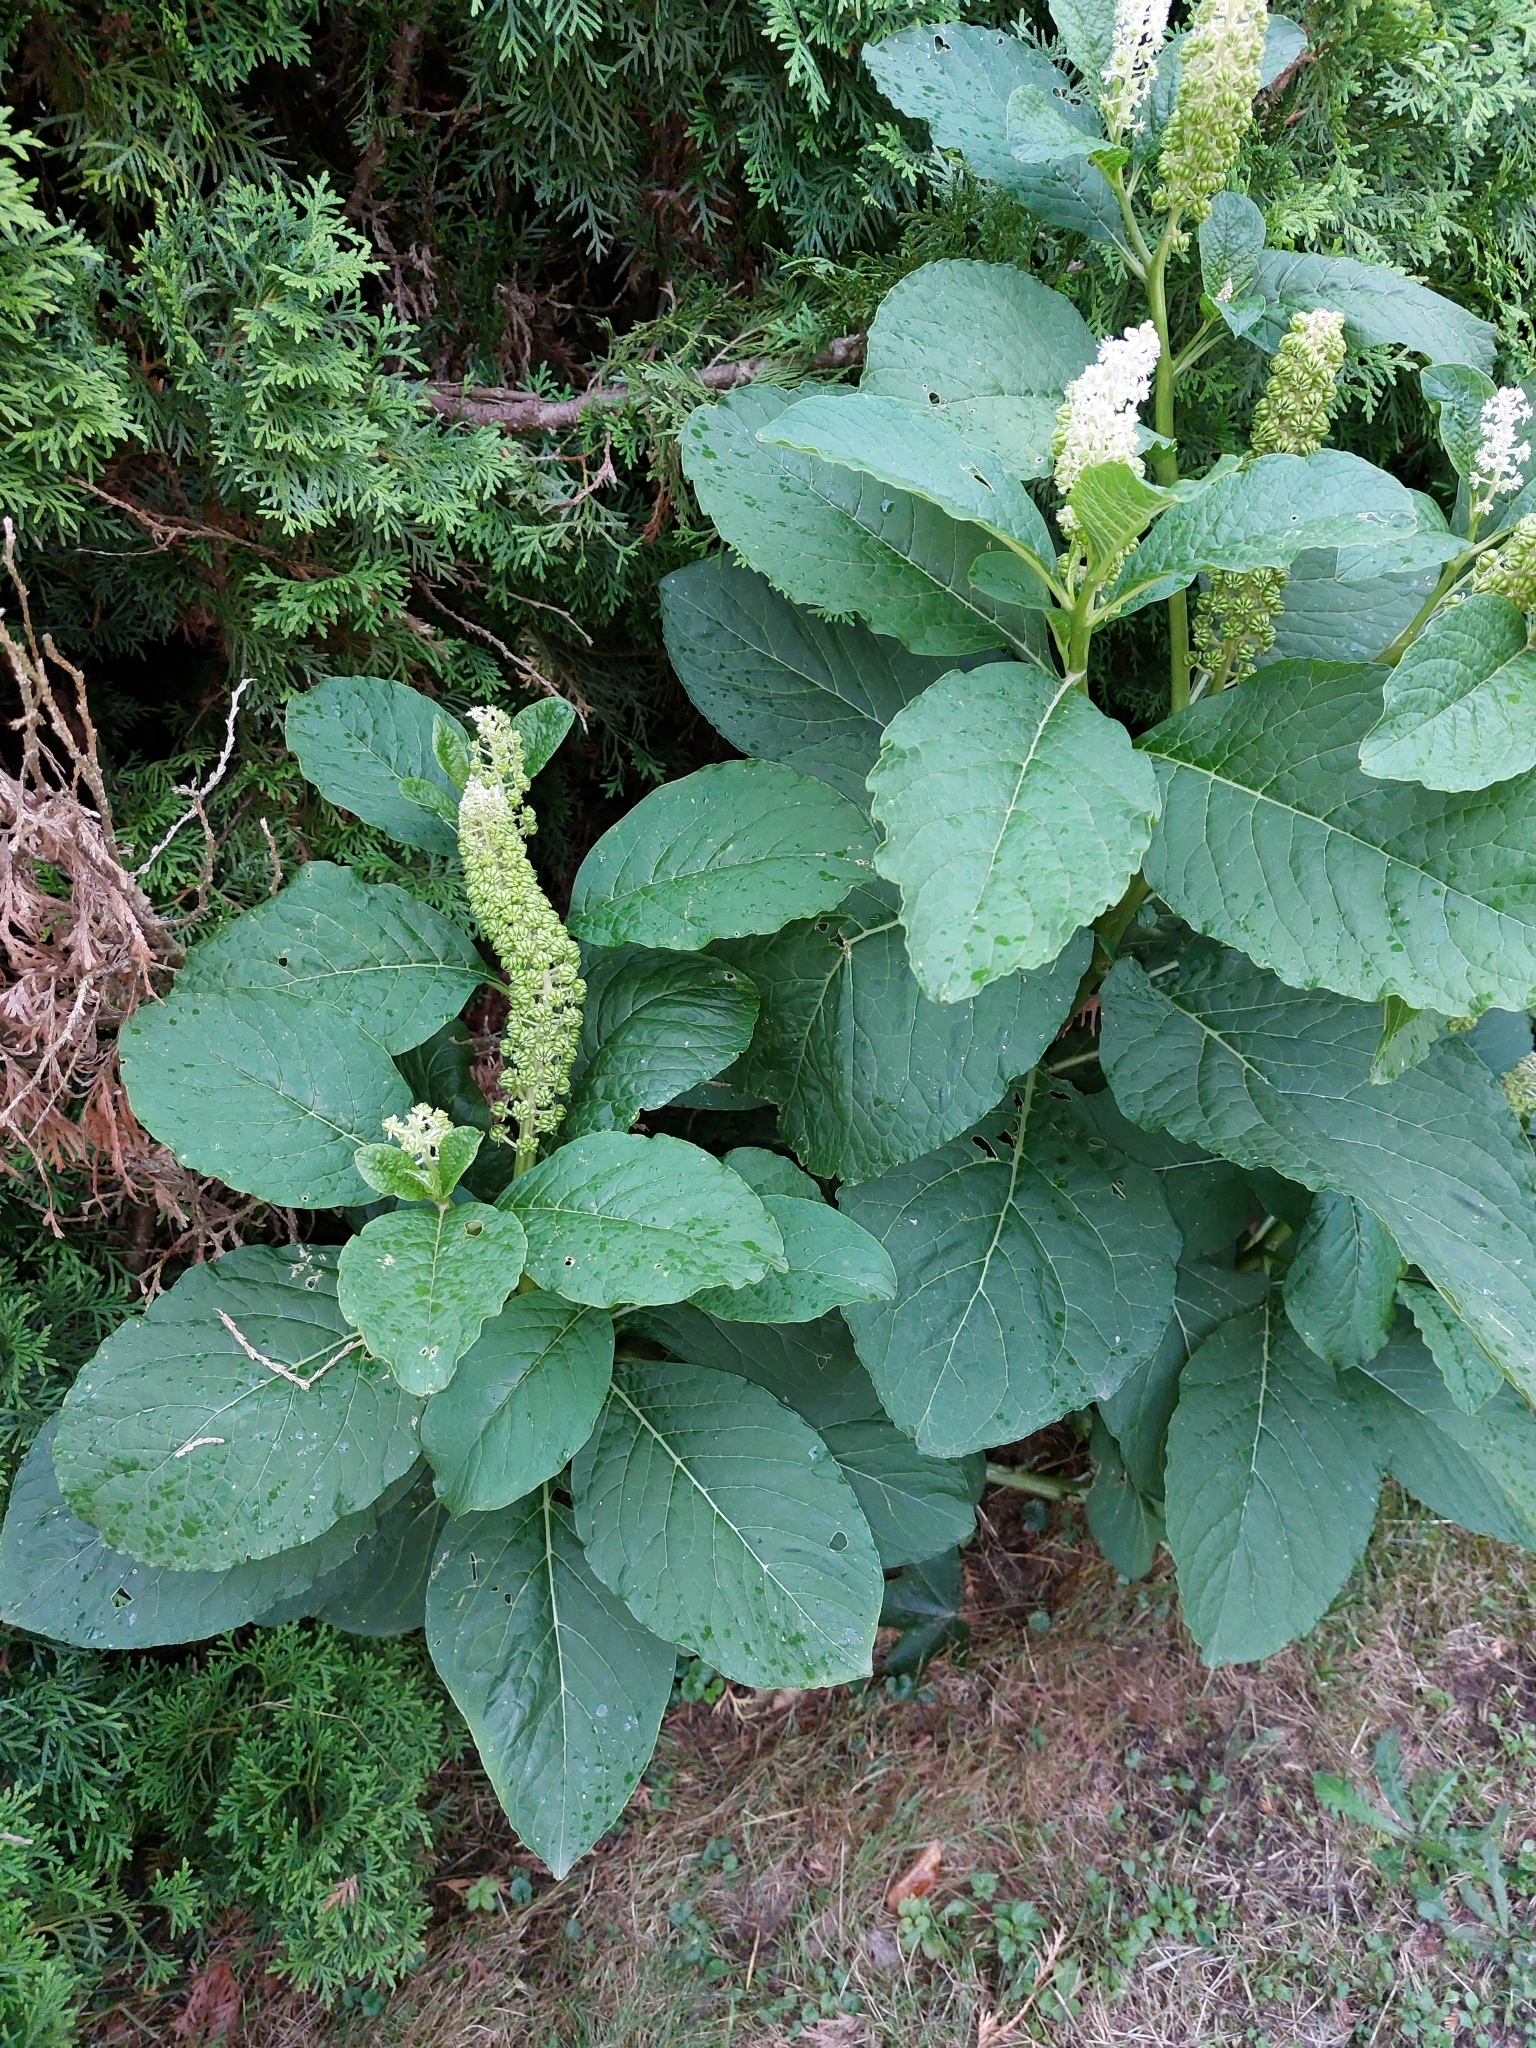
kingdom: Plantae
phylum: Tracheophyta
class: Magnoliopsida
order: Caryophyllales
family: Phytolaccaceae
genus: Phytolacca
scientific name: Phytolacca acinosa
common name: Indian pokeweed
